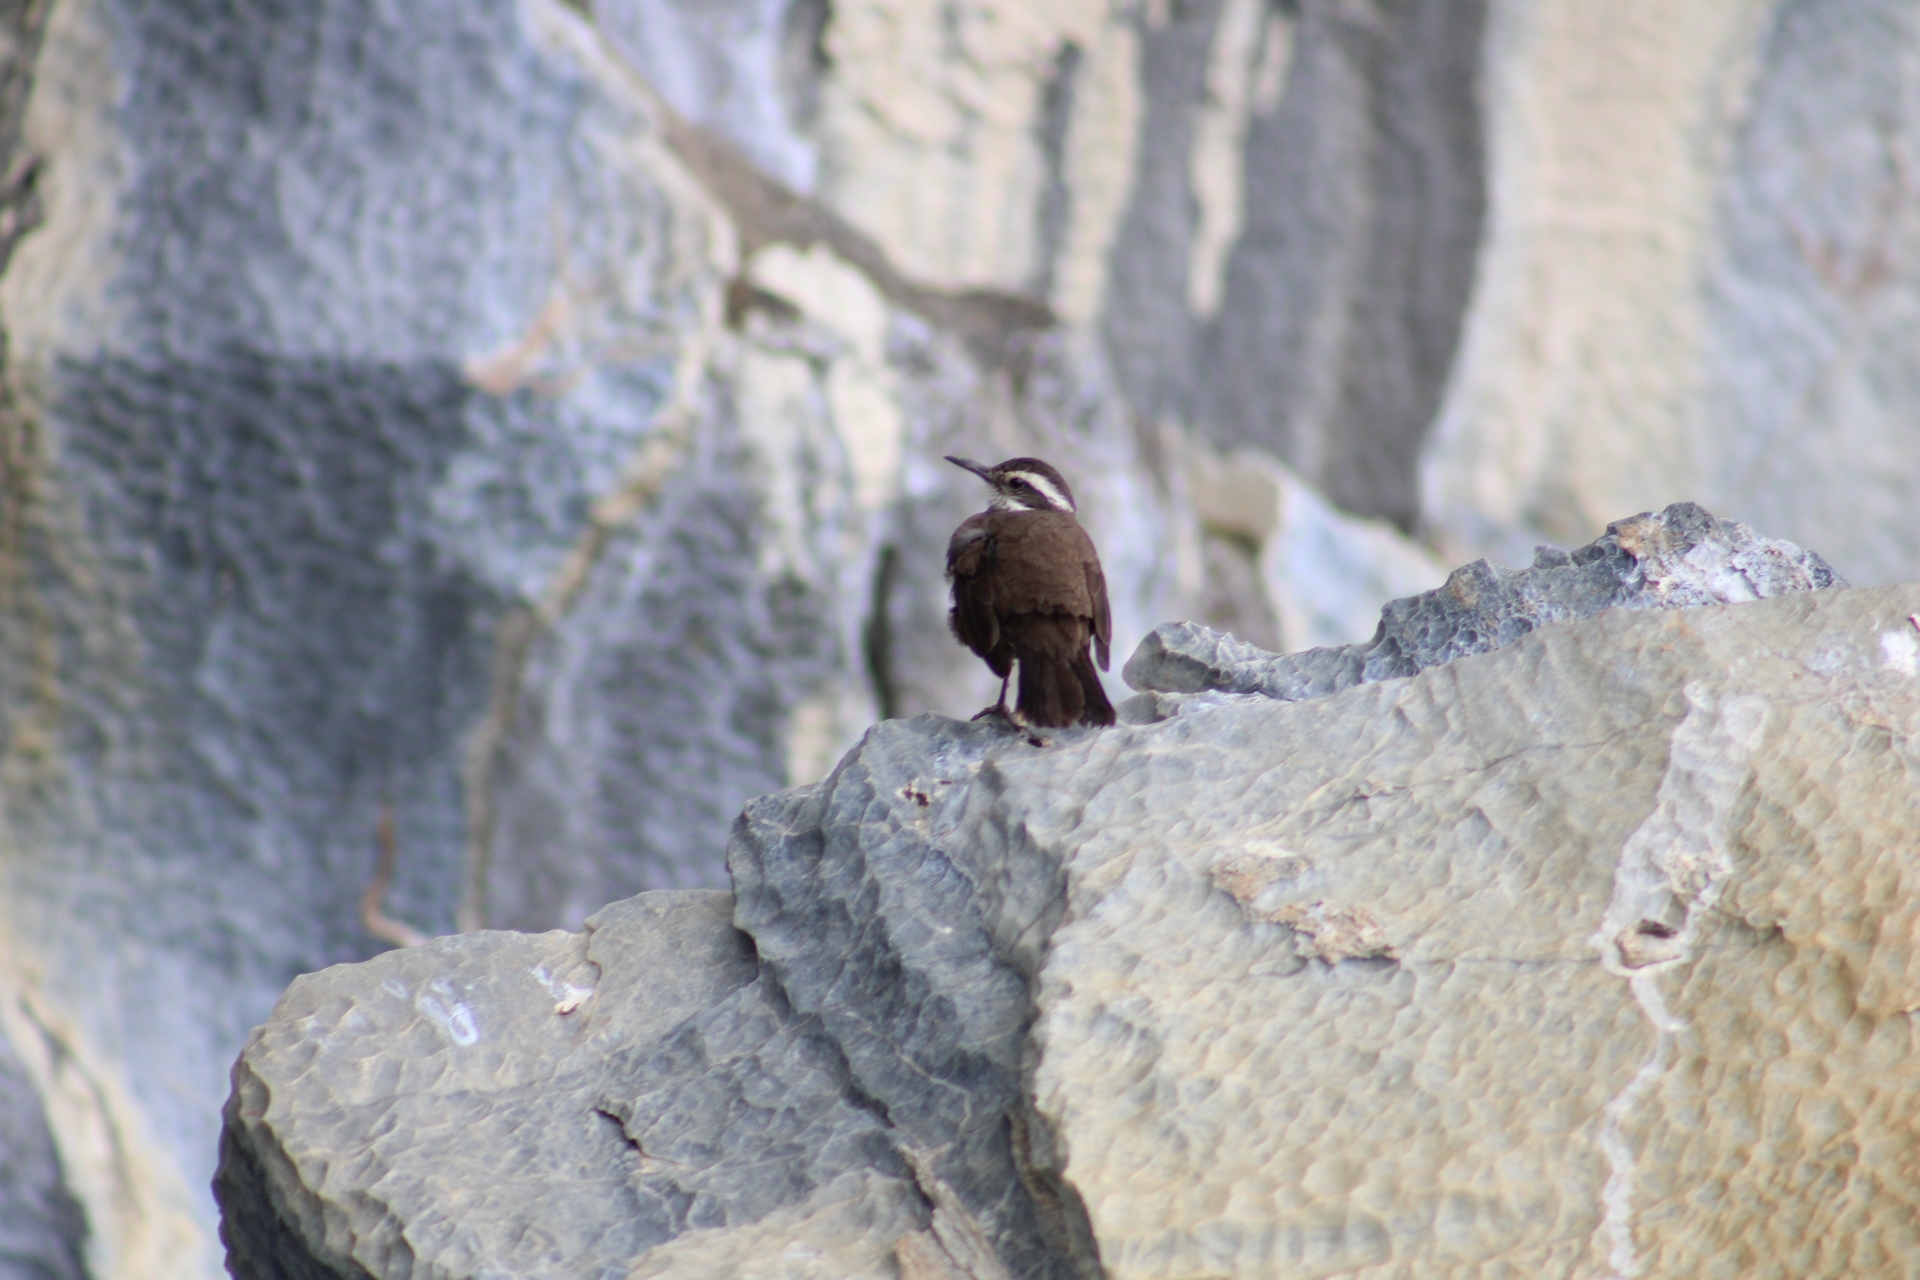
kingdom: Animalia
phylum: Chordata
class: Aves
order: Passeriformes
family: Furnariidae
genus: Cinclodes
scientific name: Cinclodes patagonicus
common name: Dark-bellied cinclodes
